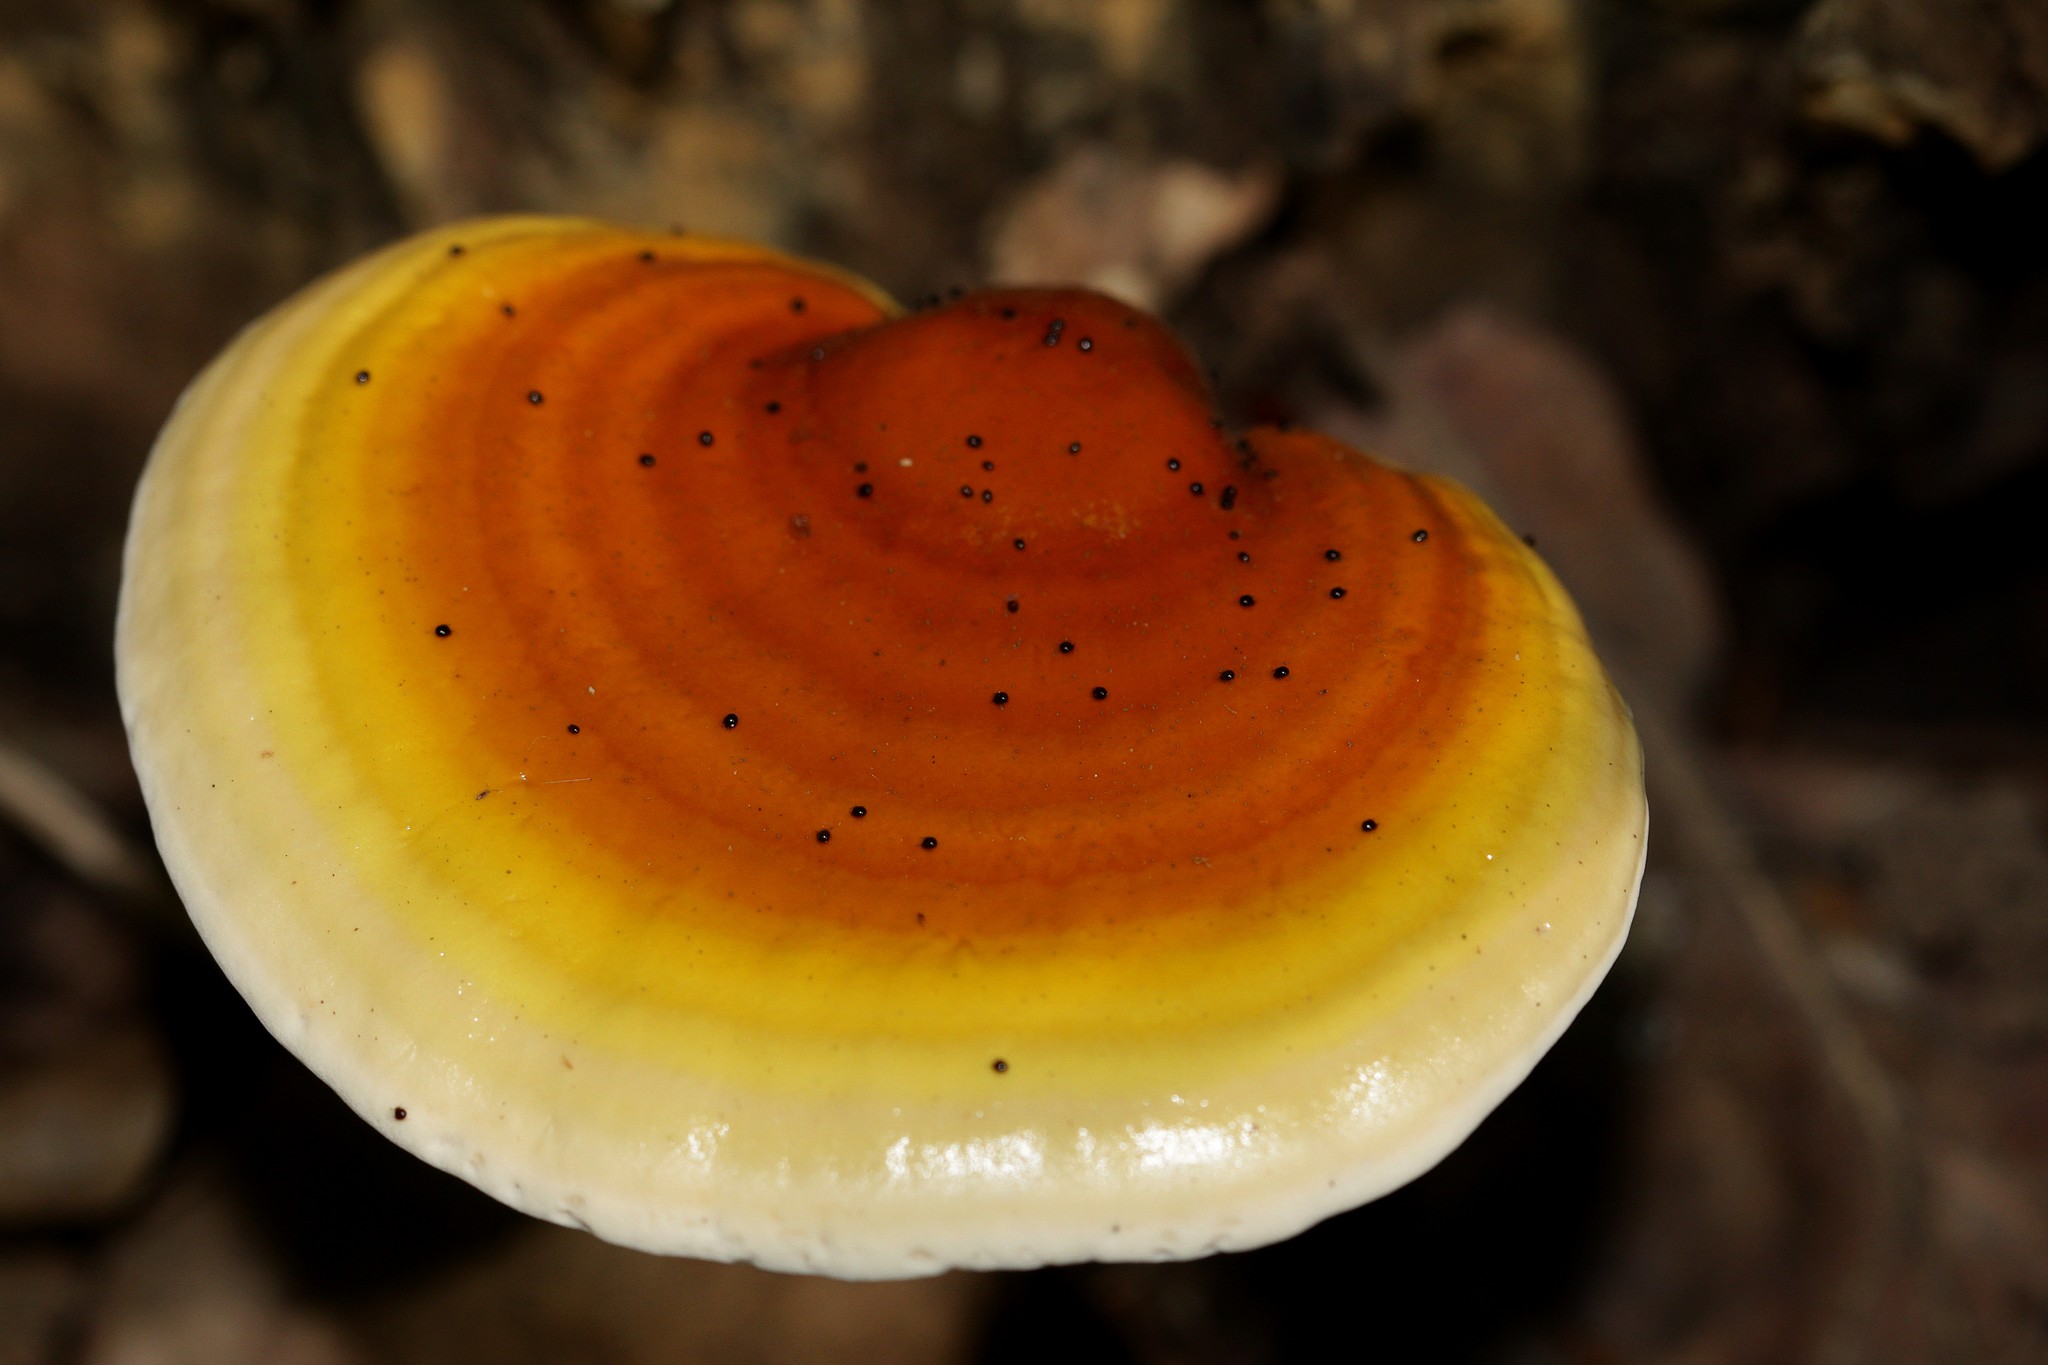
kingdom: Fungi
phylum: Basidiomycota
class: Agaricomycetes
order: Polyporales
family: Polyporaceae
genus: Ganoderma
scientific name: Ganoderma lucidum
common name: Lacquered bracket
